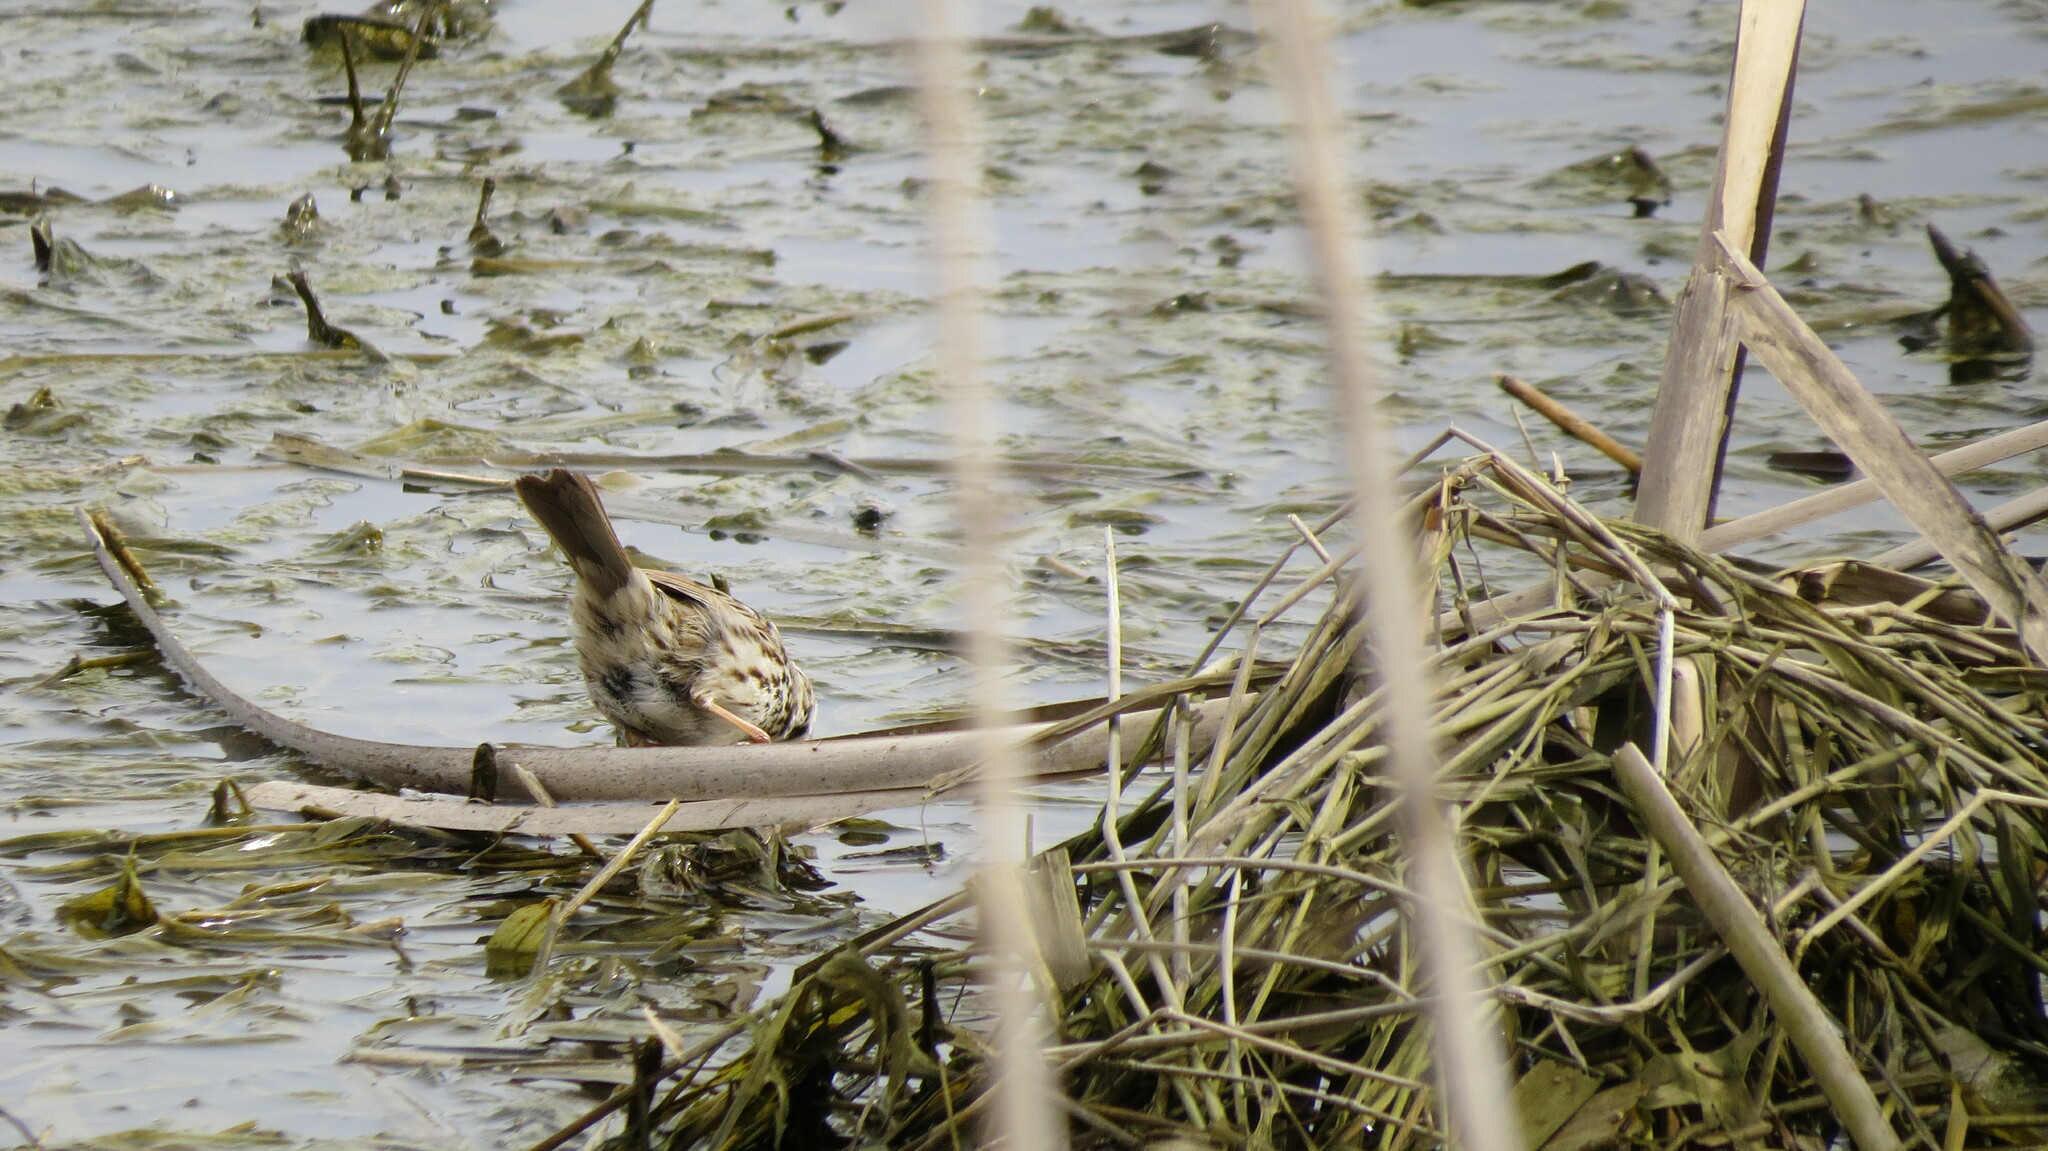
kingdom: Animalia
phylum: Chordata
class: Aves
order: Passeriformes
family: Passerellidae
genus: Melospiza
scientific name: Melospiza melodia
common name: Song sparrow
